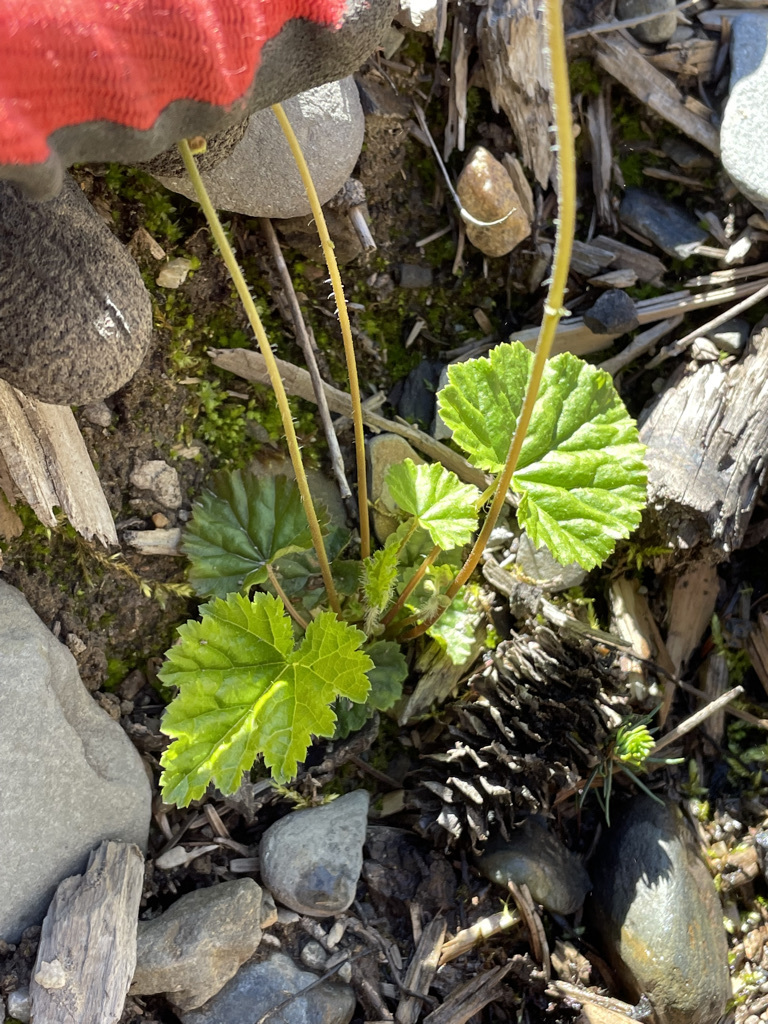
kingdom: Plantae
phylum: Tracheophyta
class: Magnoliopsida
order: Saxifragales
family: Saxifragaceae
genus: Pectiantia
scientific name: Pectiantia pentandra
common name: Alpine bishop's-cap
